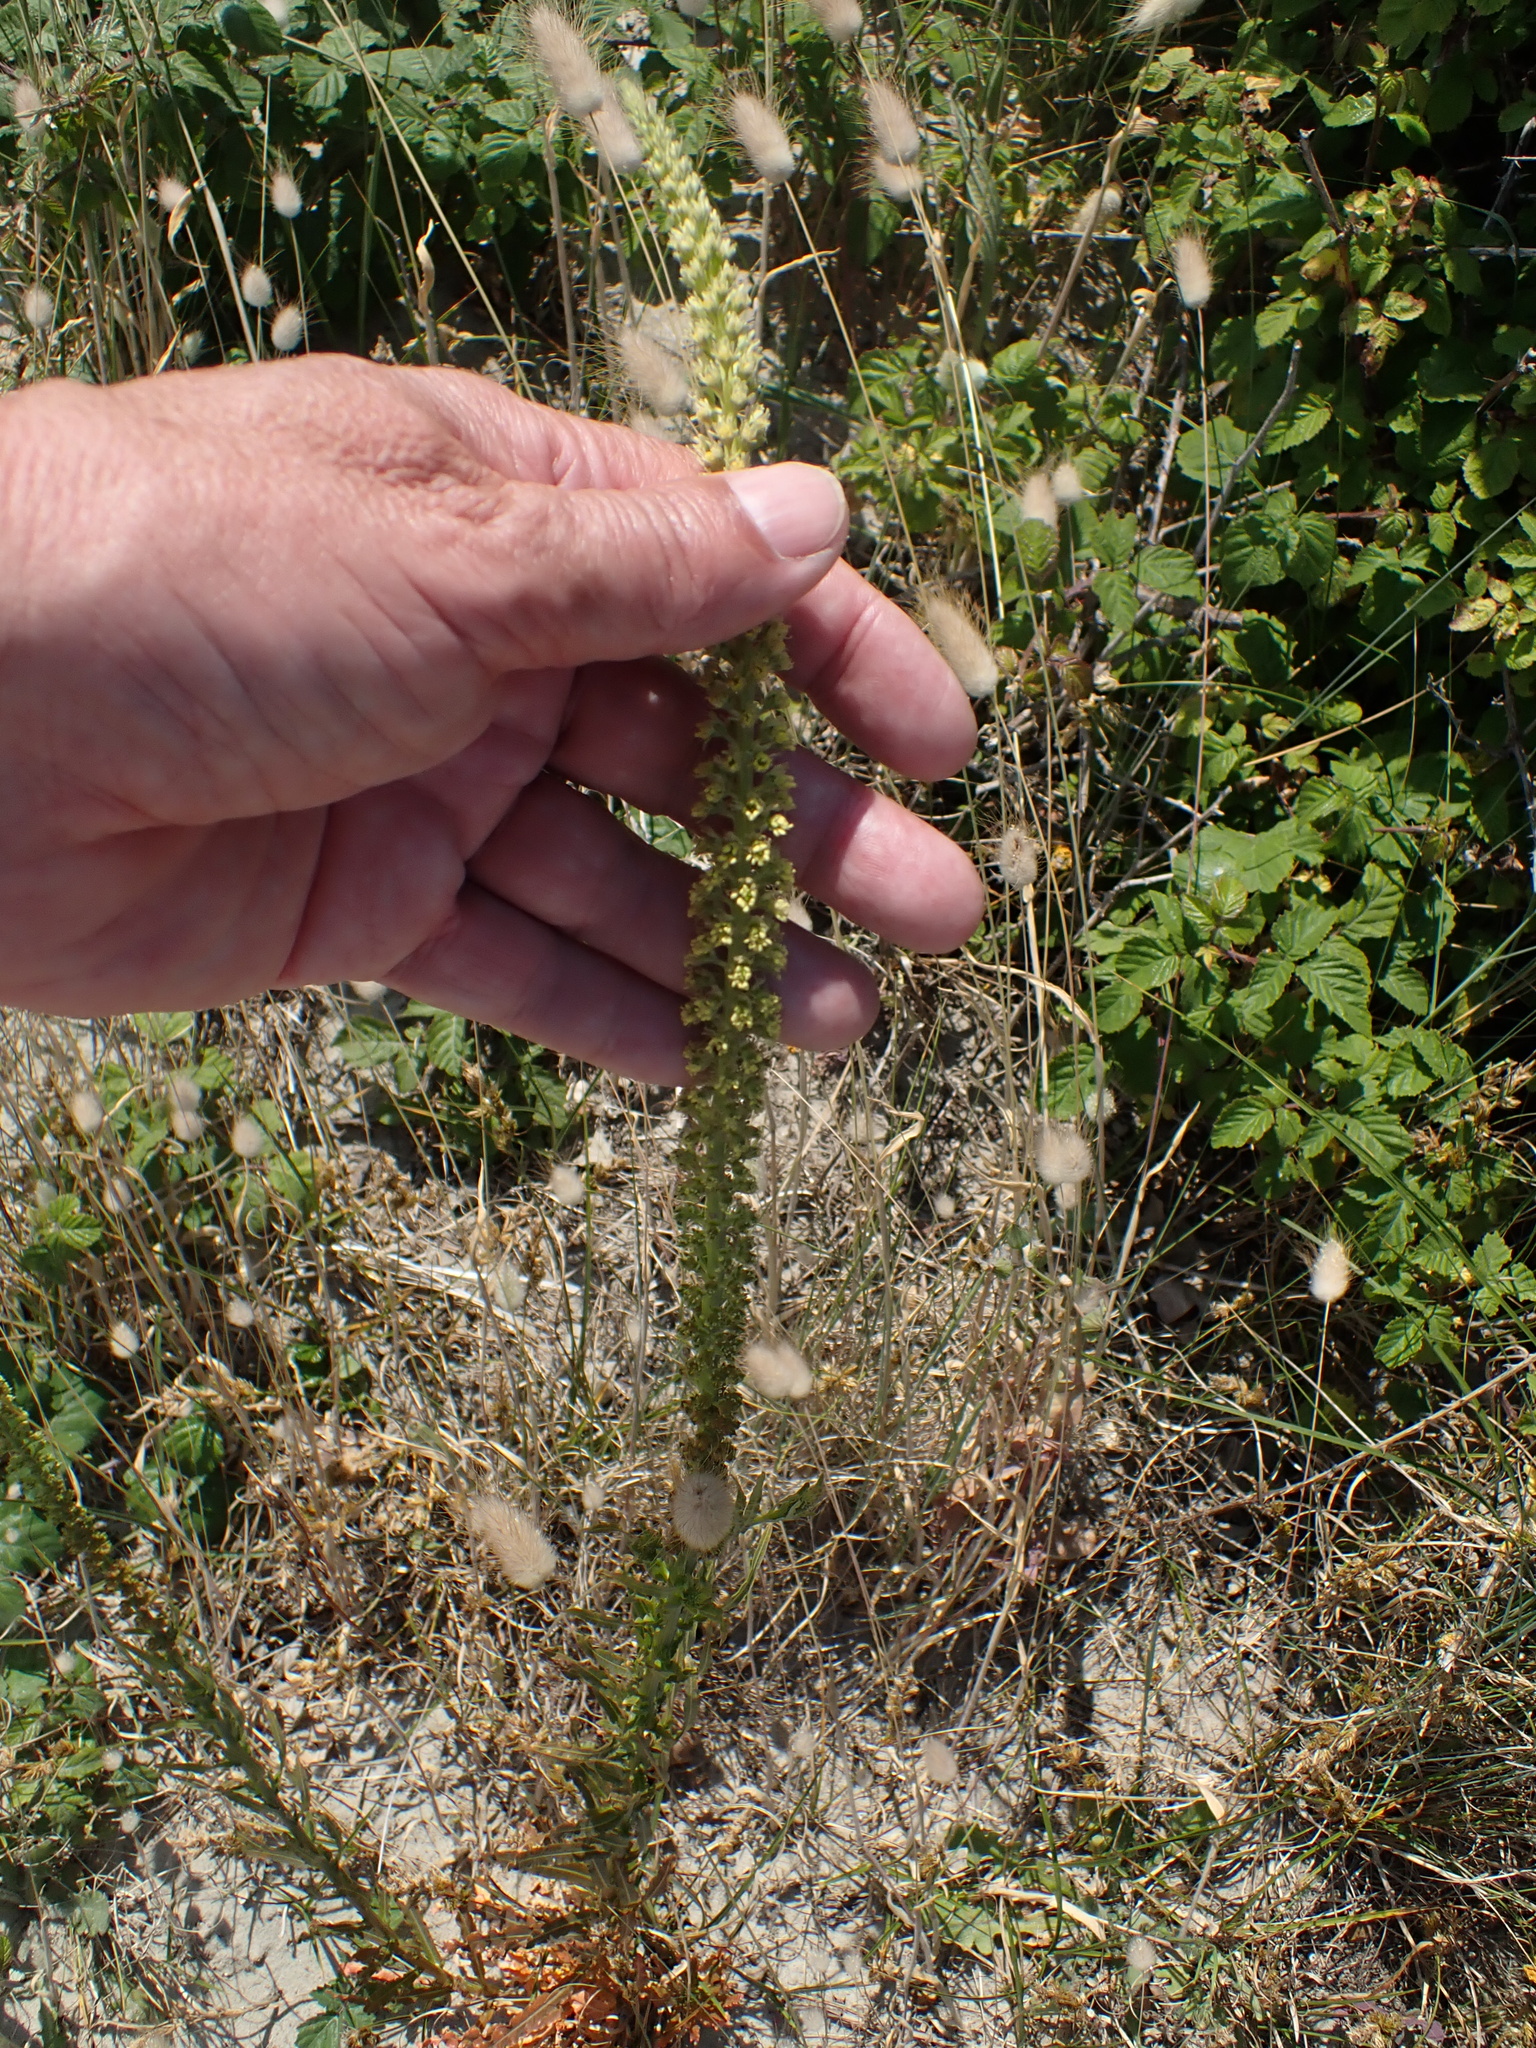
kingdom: Plantae
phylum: Tracheophyta
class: Magnoliopsida
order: Brassicales
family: Resedaceae
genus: Reseda
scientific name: Reseda luteola
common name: Weld
